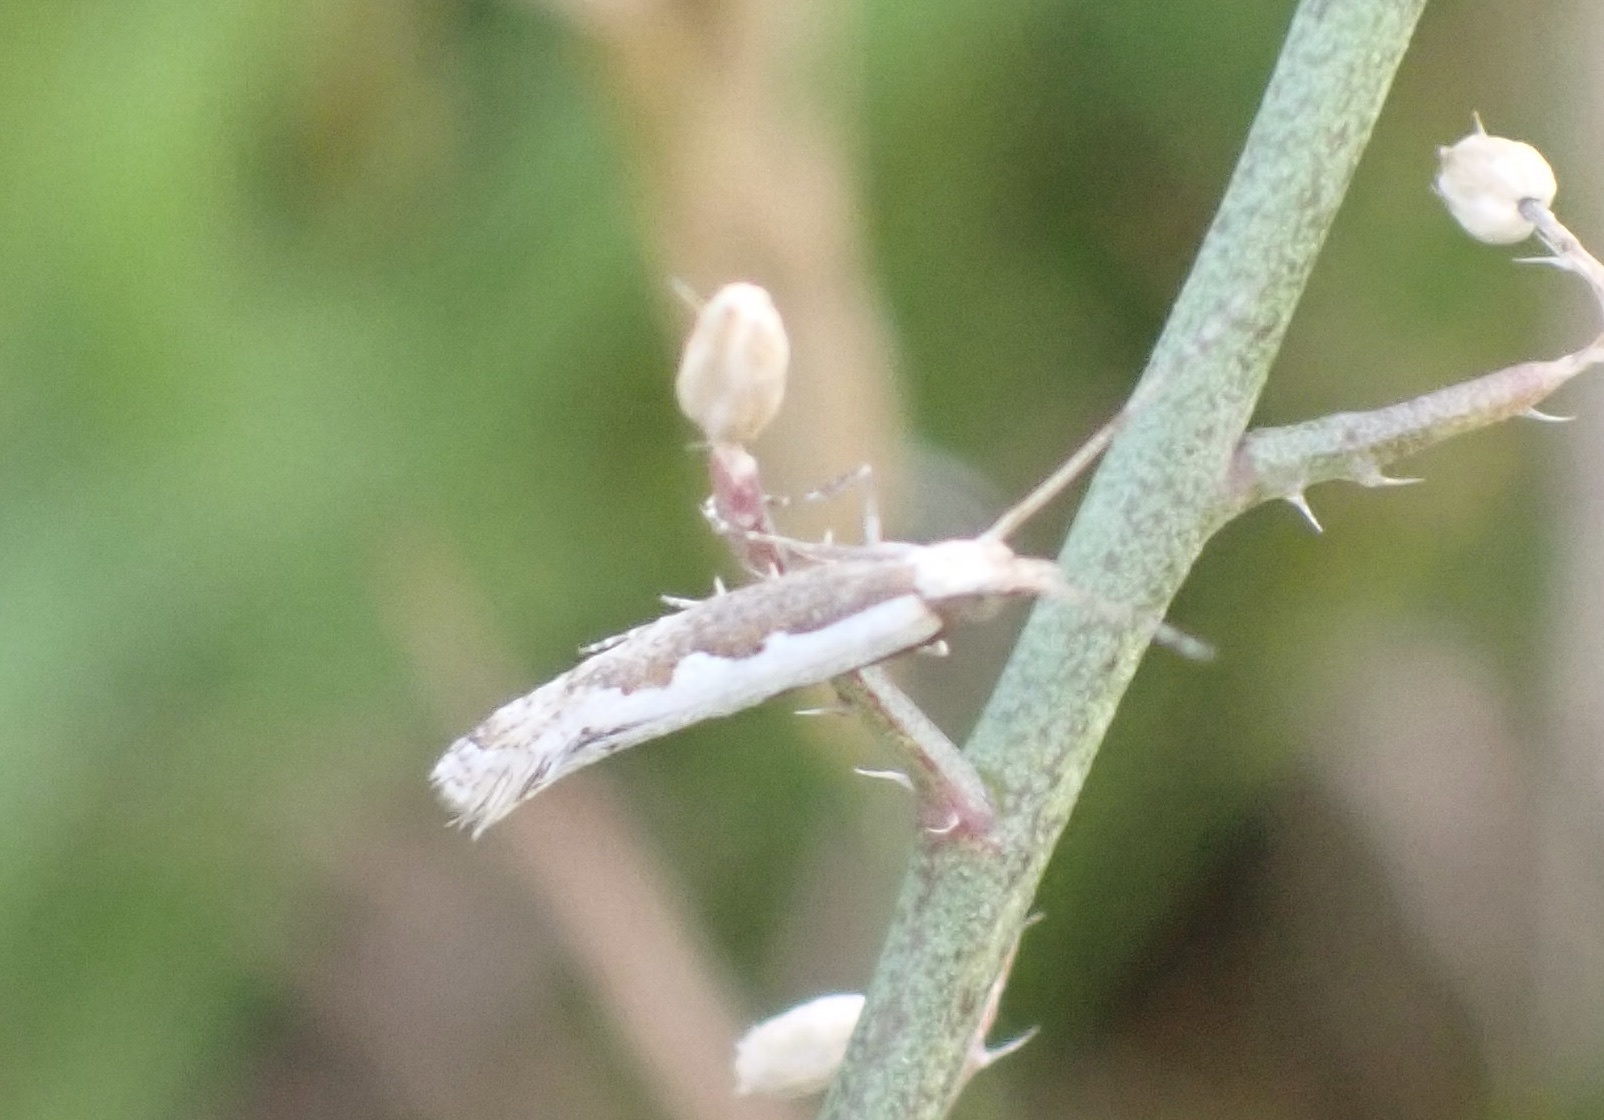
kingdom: Animalia
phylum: Arthropoda
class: Insecta
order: Lepidoptera
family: Plutellidae
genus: Plutella
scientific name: Plutella xylostella
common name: Diamond-back moth
